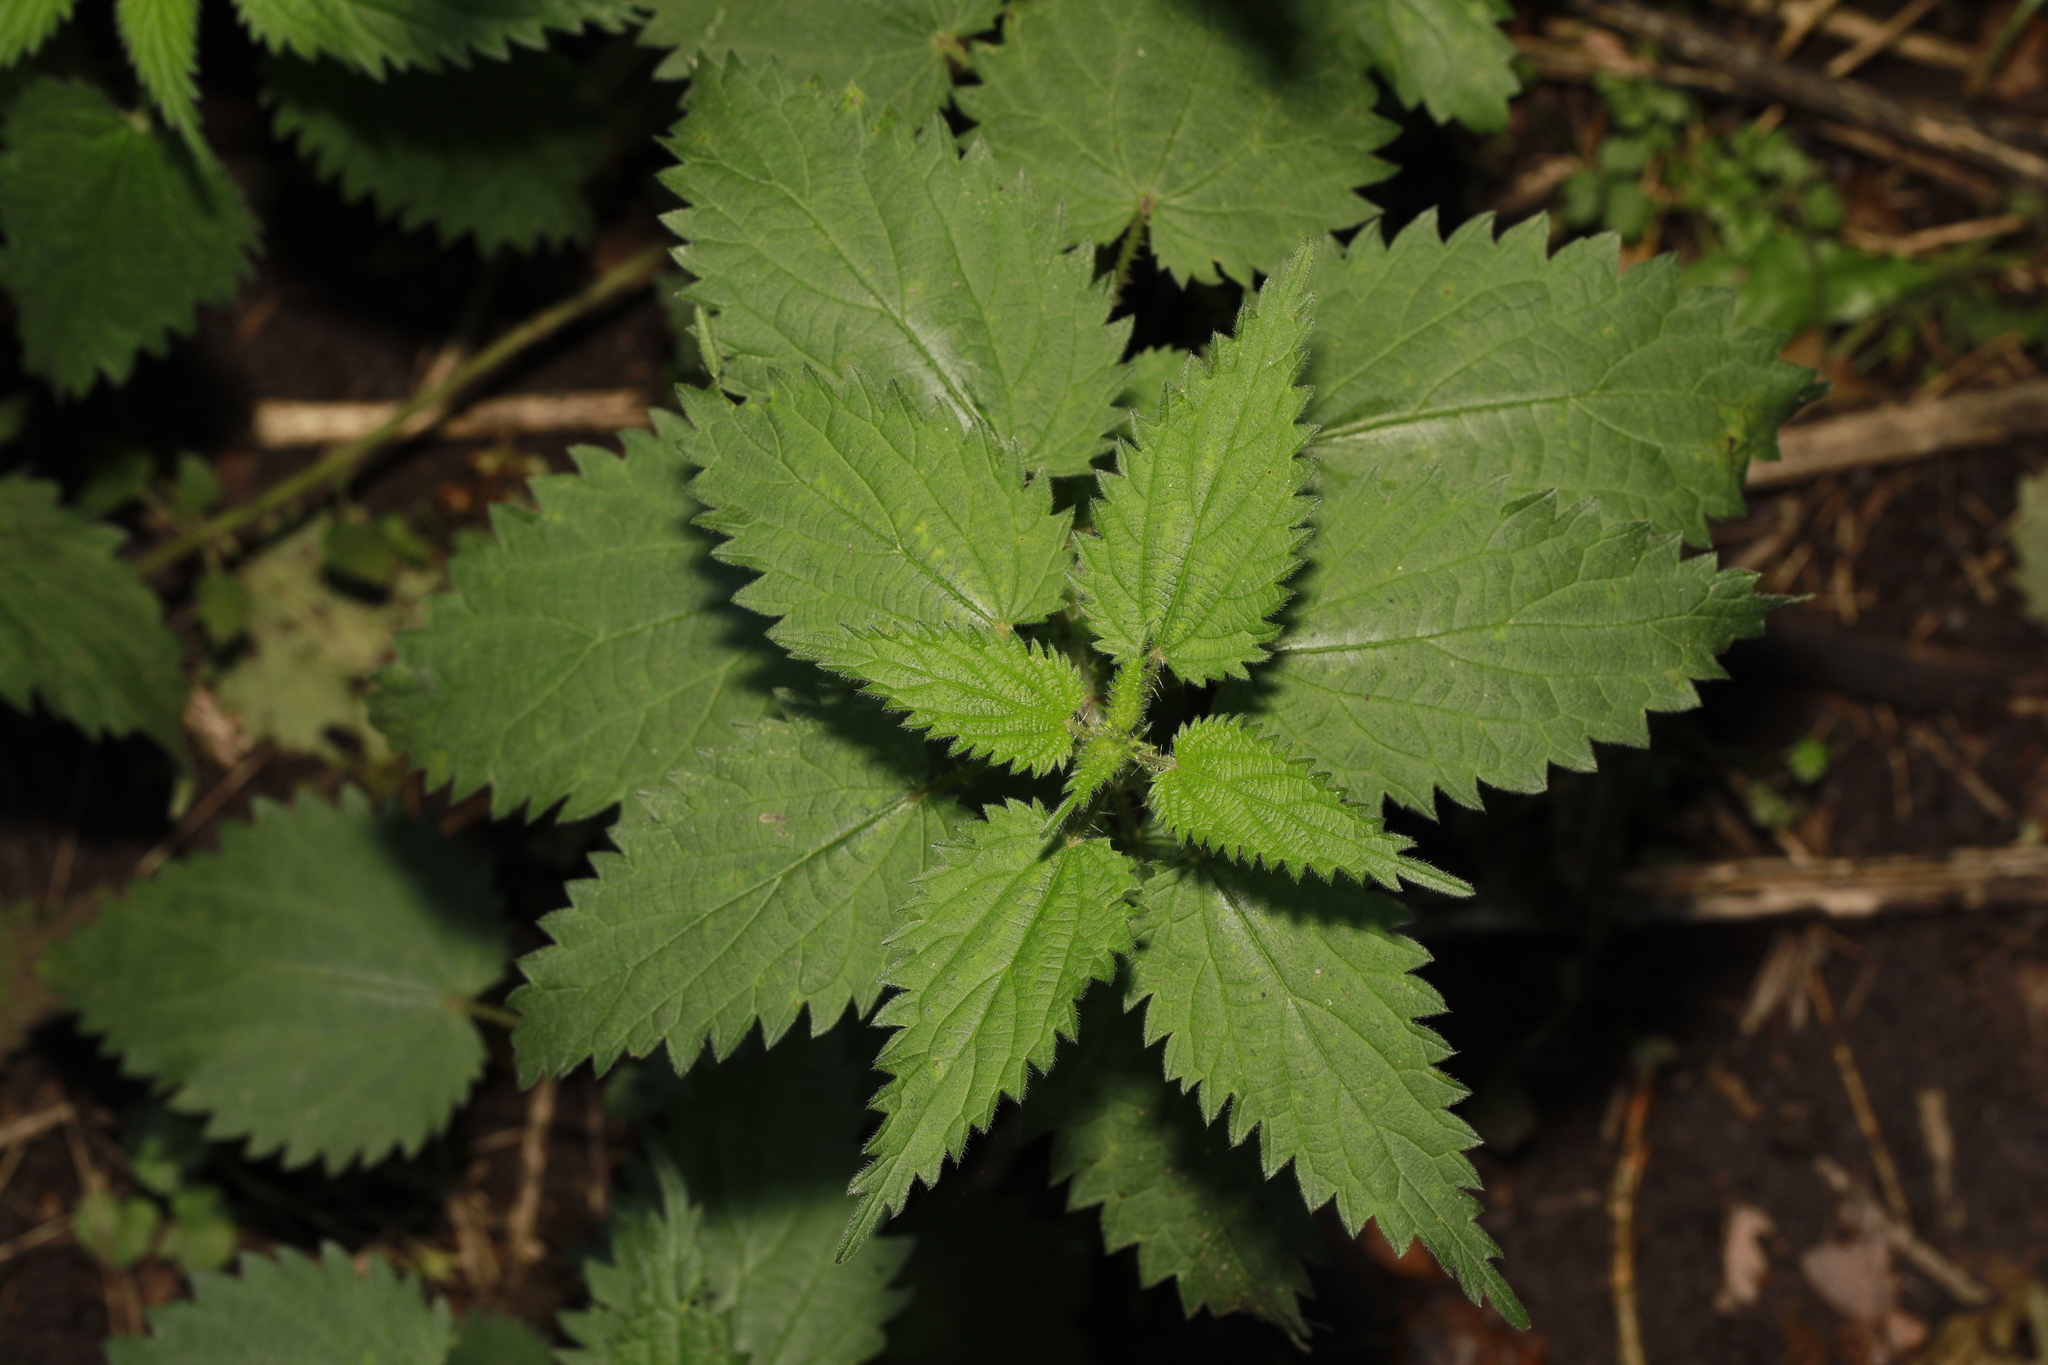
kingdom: Plantae
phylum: Tracheophyta
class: Magnoliopsida
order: Rosales
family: Urticaceae
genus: Urtica
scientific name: Urtica dioica
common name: Common nettle
